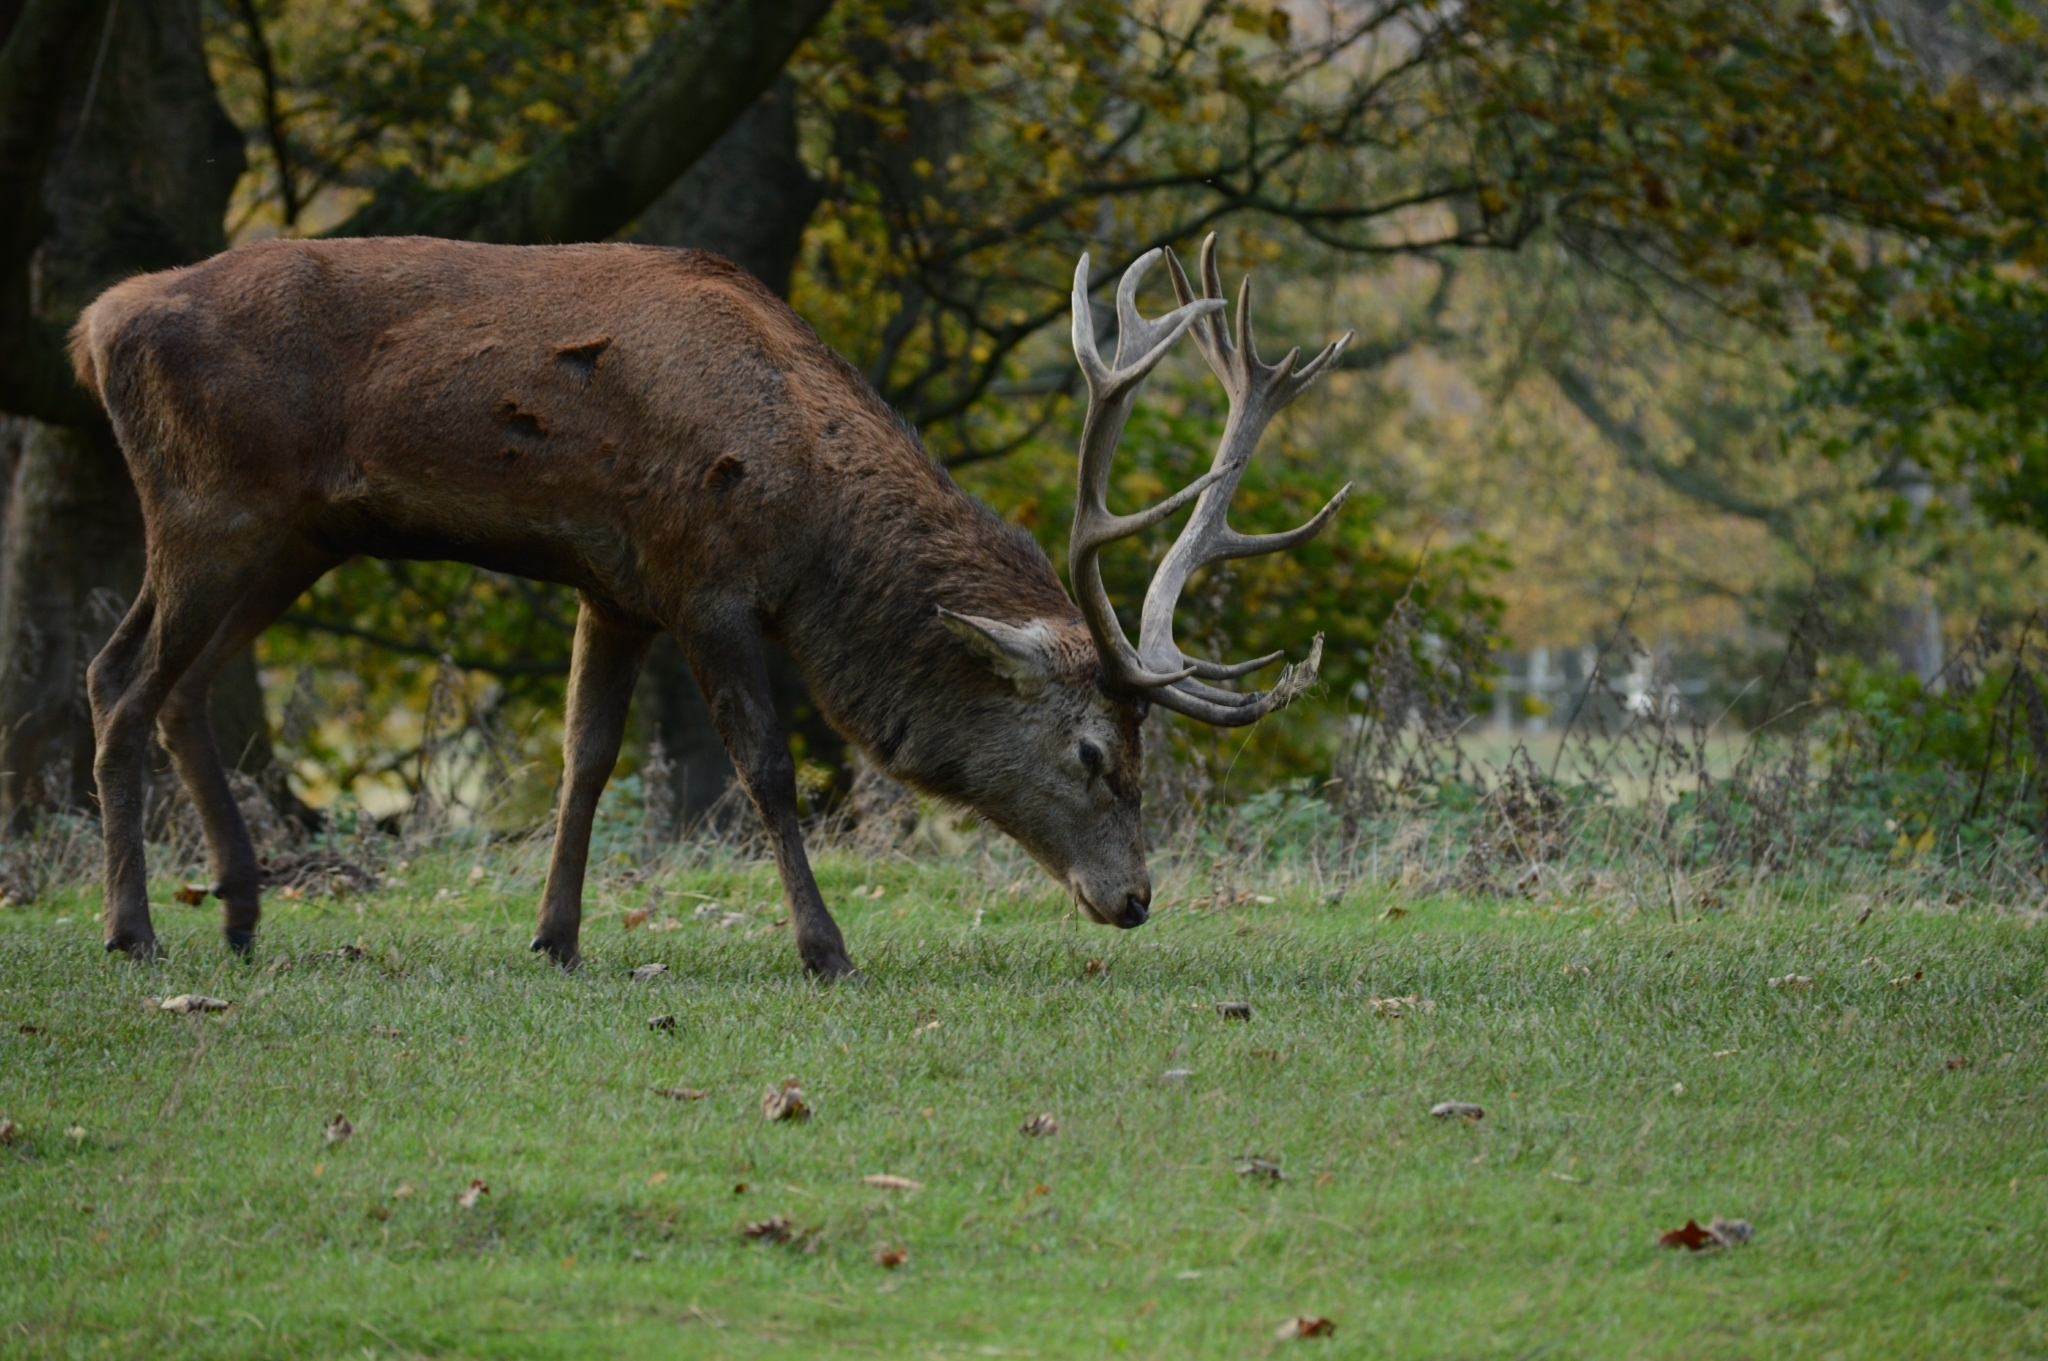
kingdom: Animalia
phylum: Chordata
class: Mammalia
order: Artiodactyla
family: Cervidae
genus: Cervus
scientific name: Cervus elaphus
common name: Red deer
